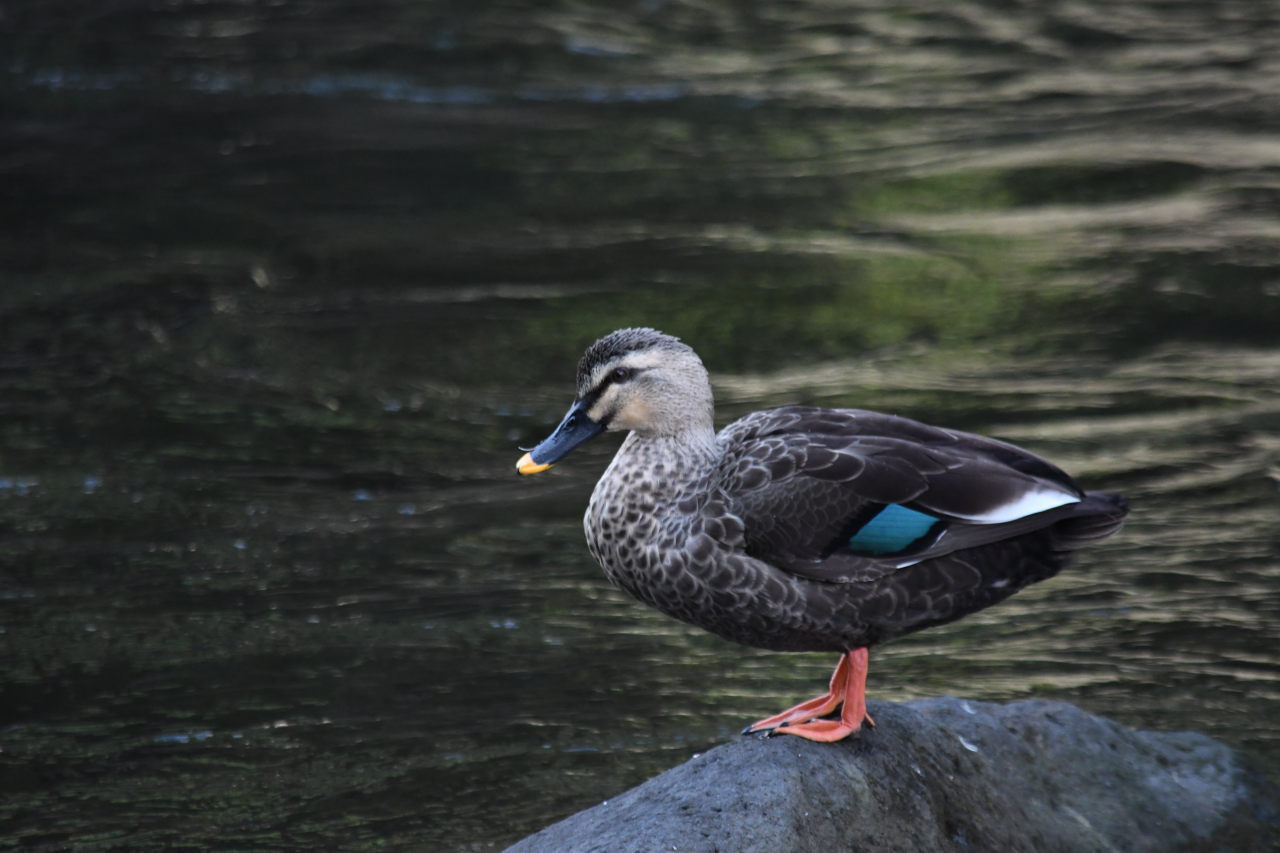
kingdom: Animalia
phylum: Chordata
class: Aves
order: Anseriformes
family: Anatidae
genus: Anas
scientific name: Anas zonorhyncha
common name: Eastern spot-billed duck
